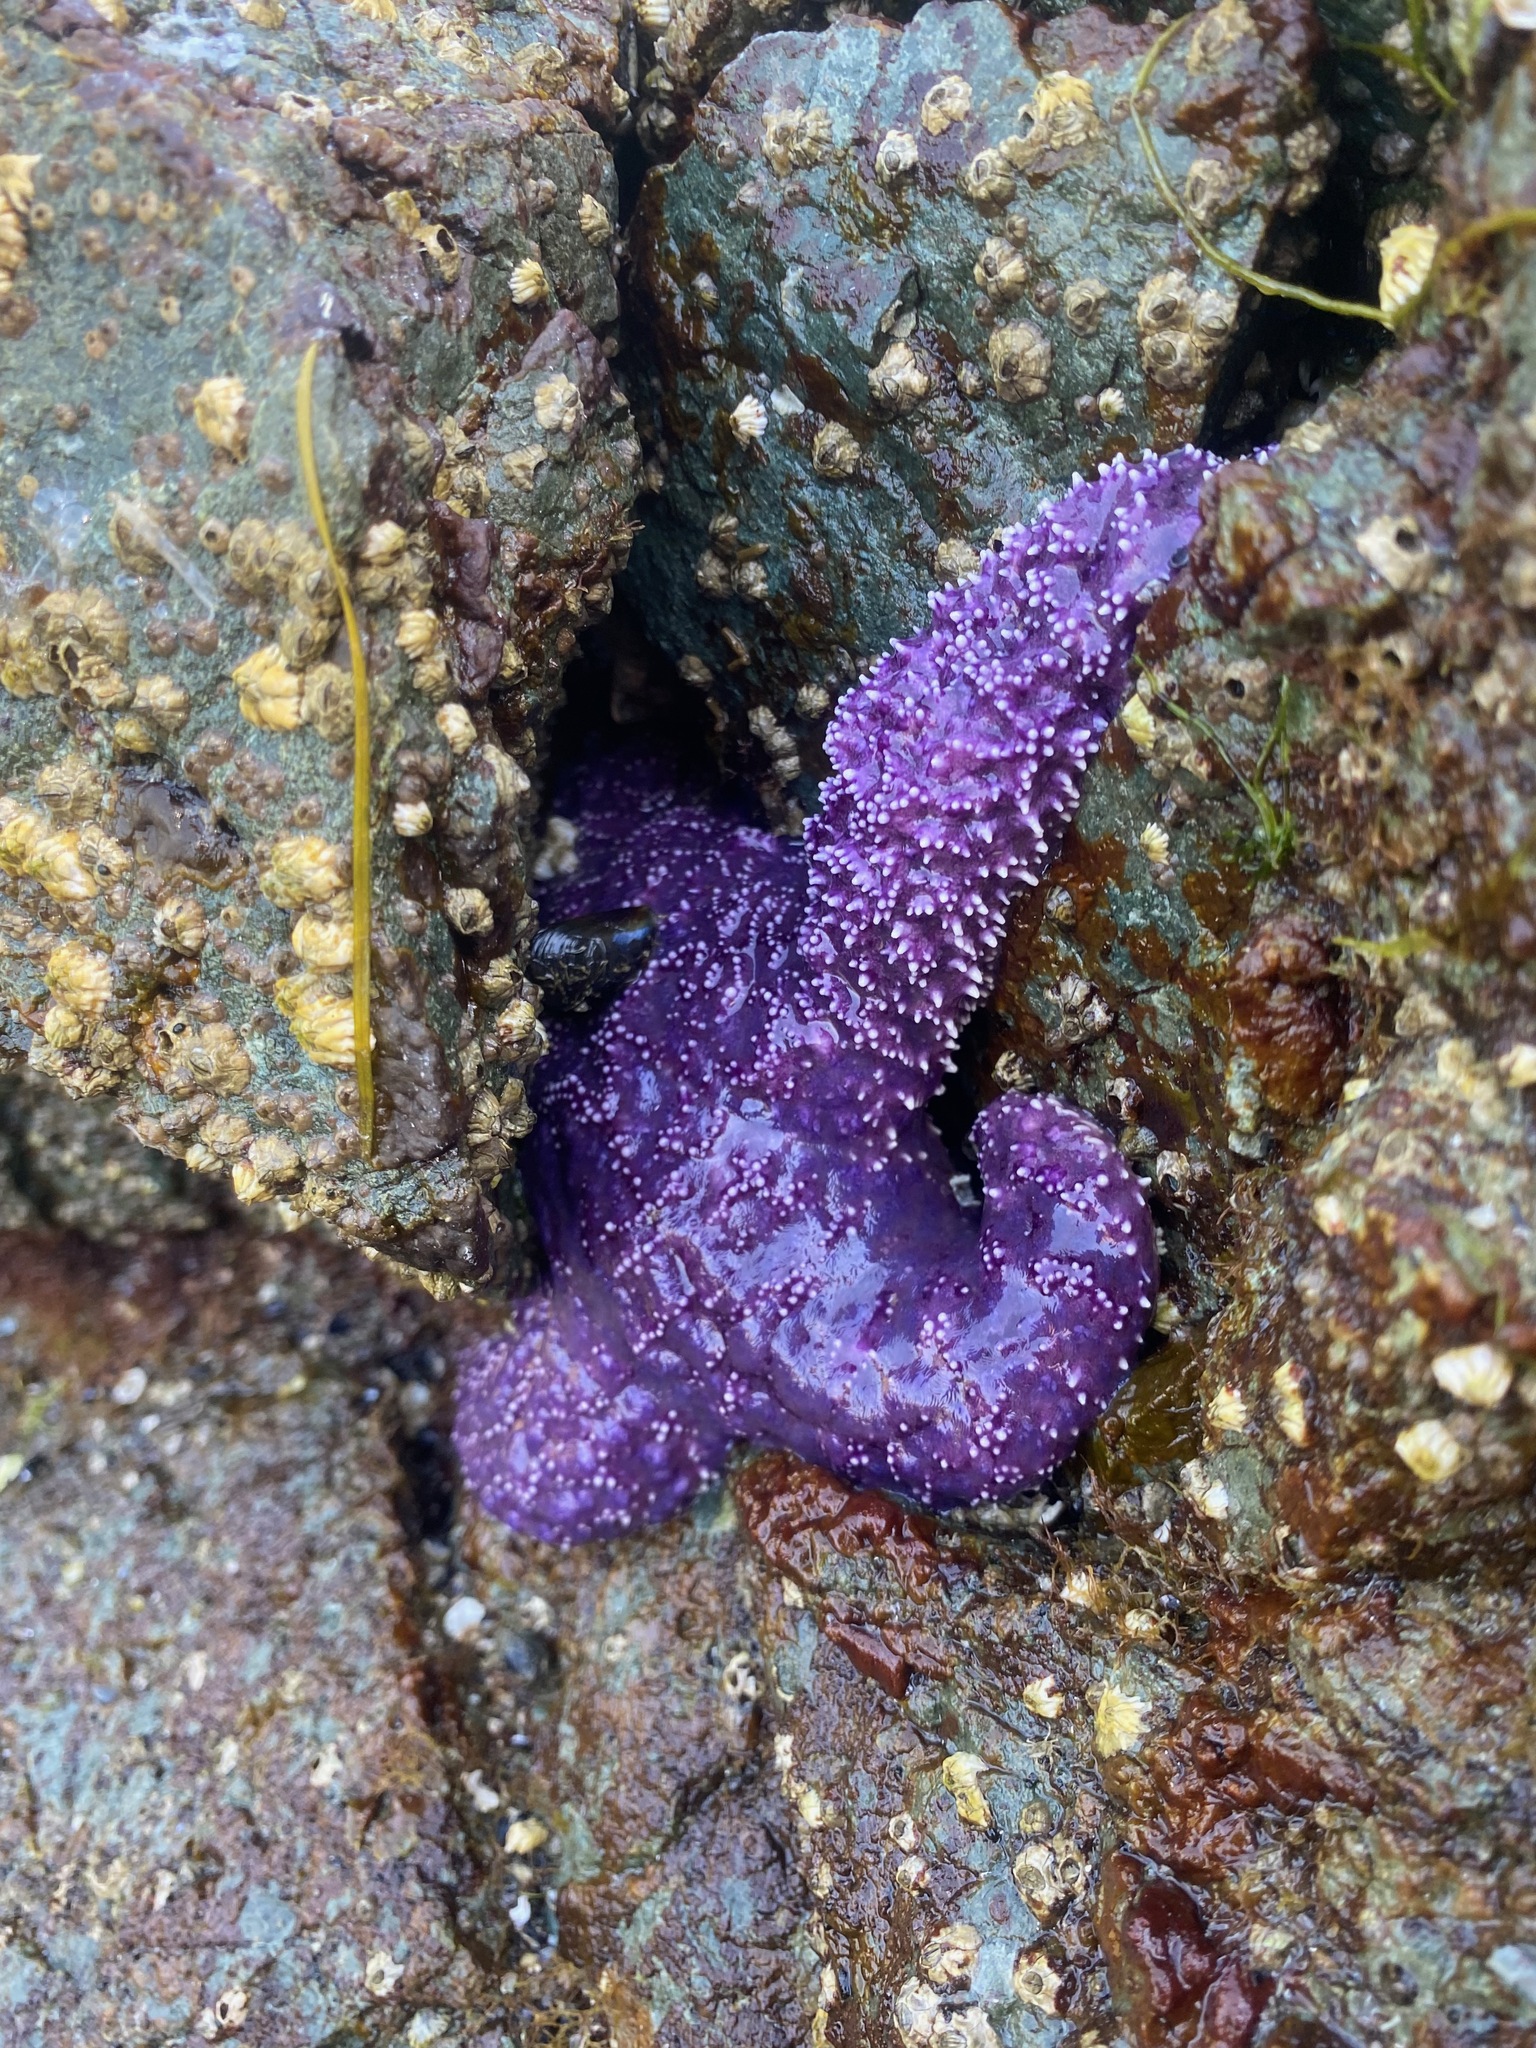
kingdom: Animalia
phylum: Echinodermata
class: Asteroidea
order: Forcipulatida
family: Asteriidae
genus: Pisaster
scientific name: Pisaster ochraceus
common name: Ochre stars
